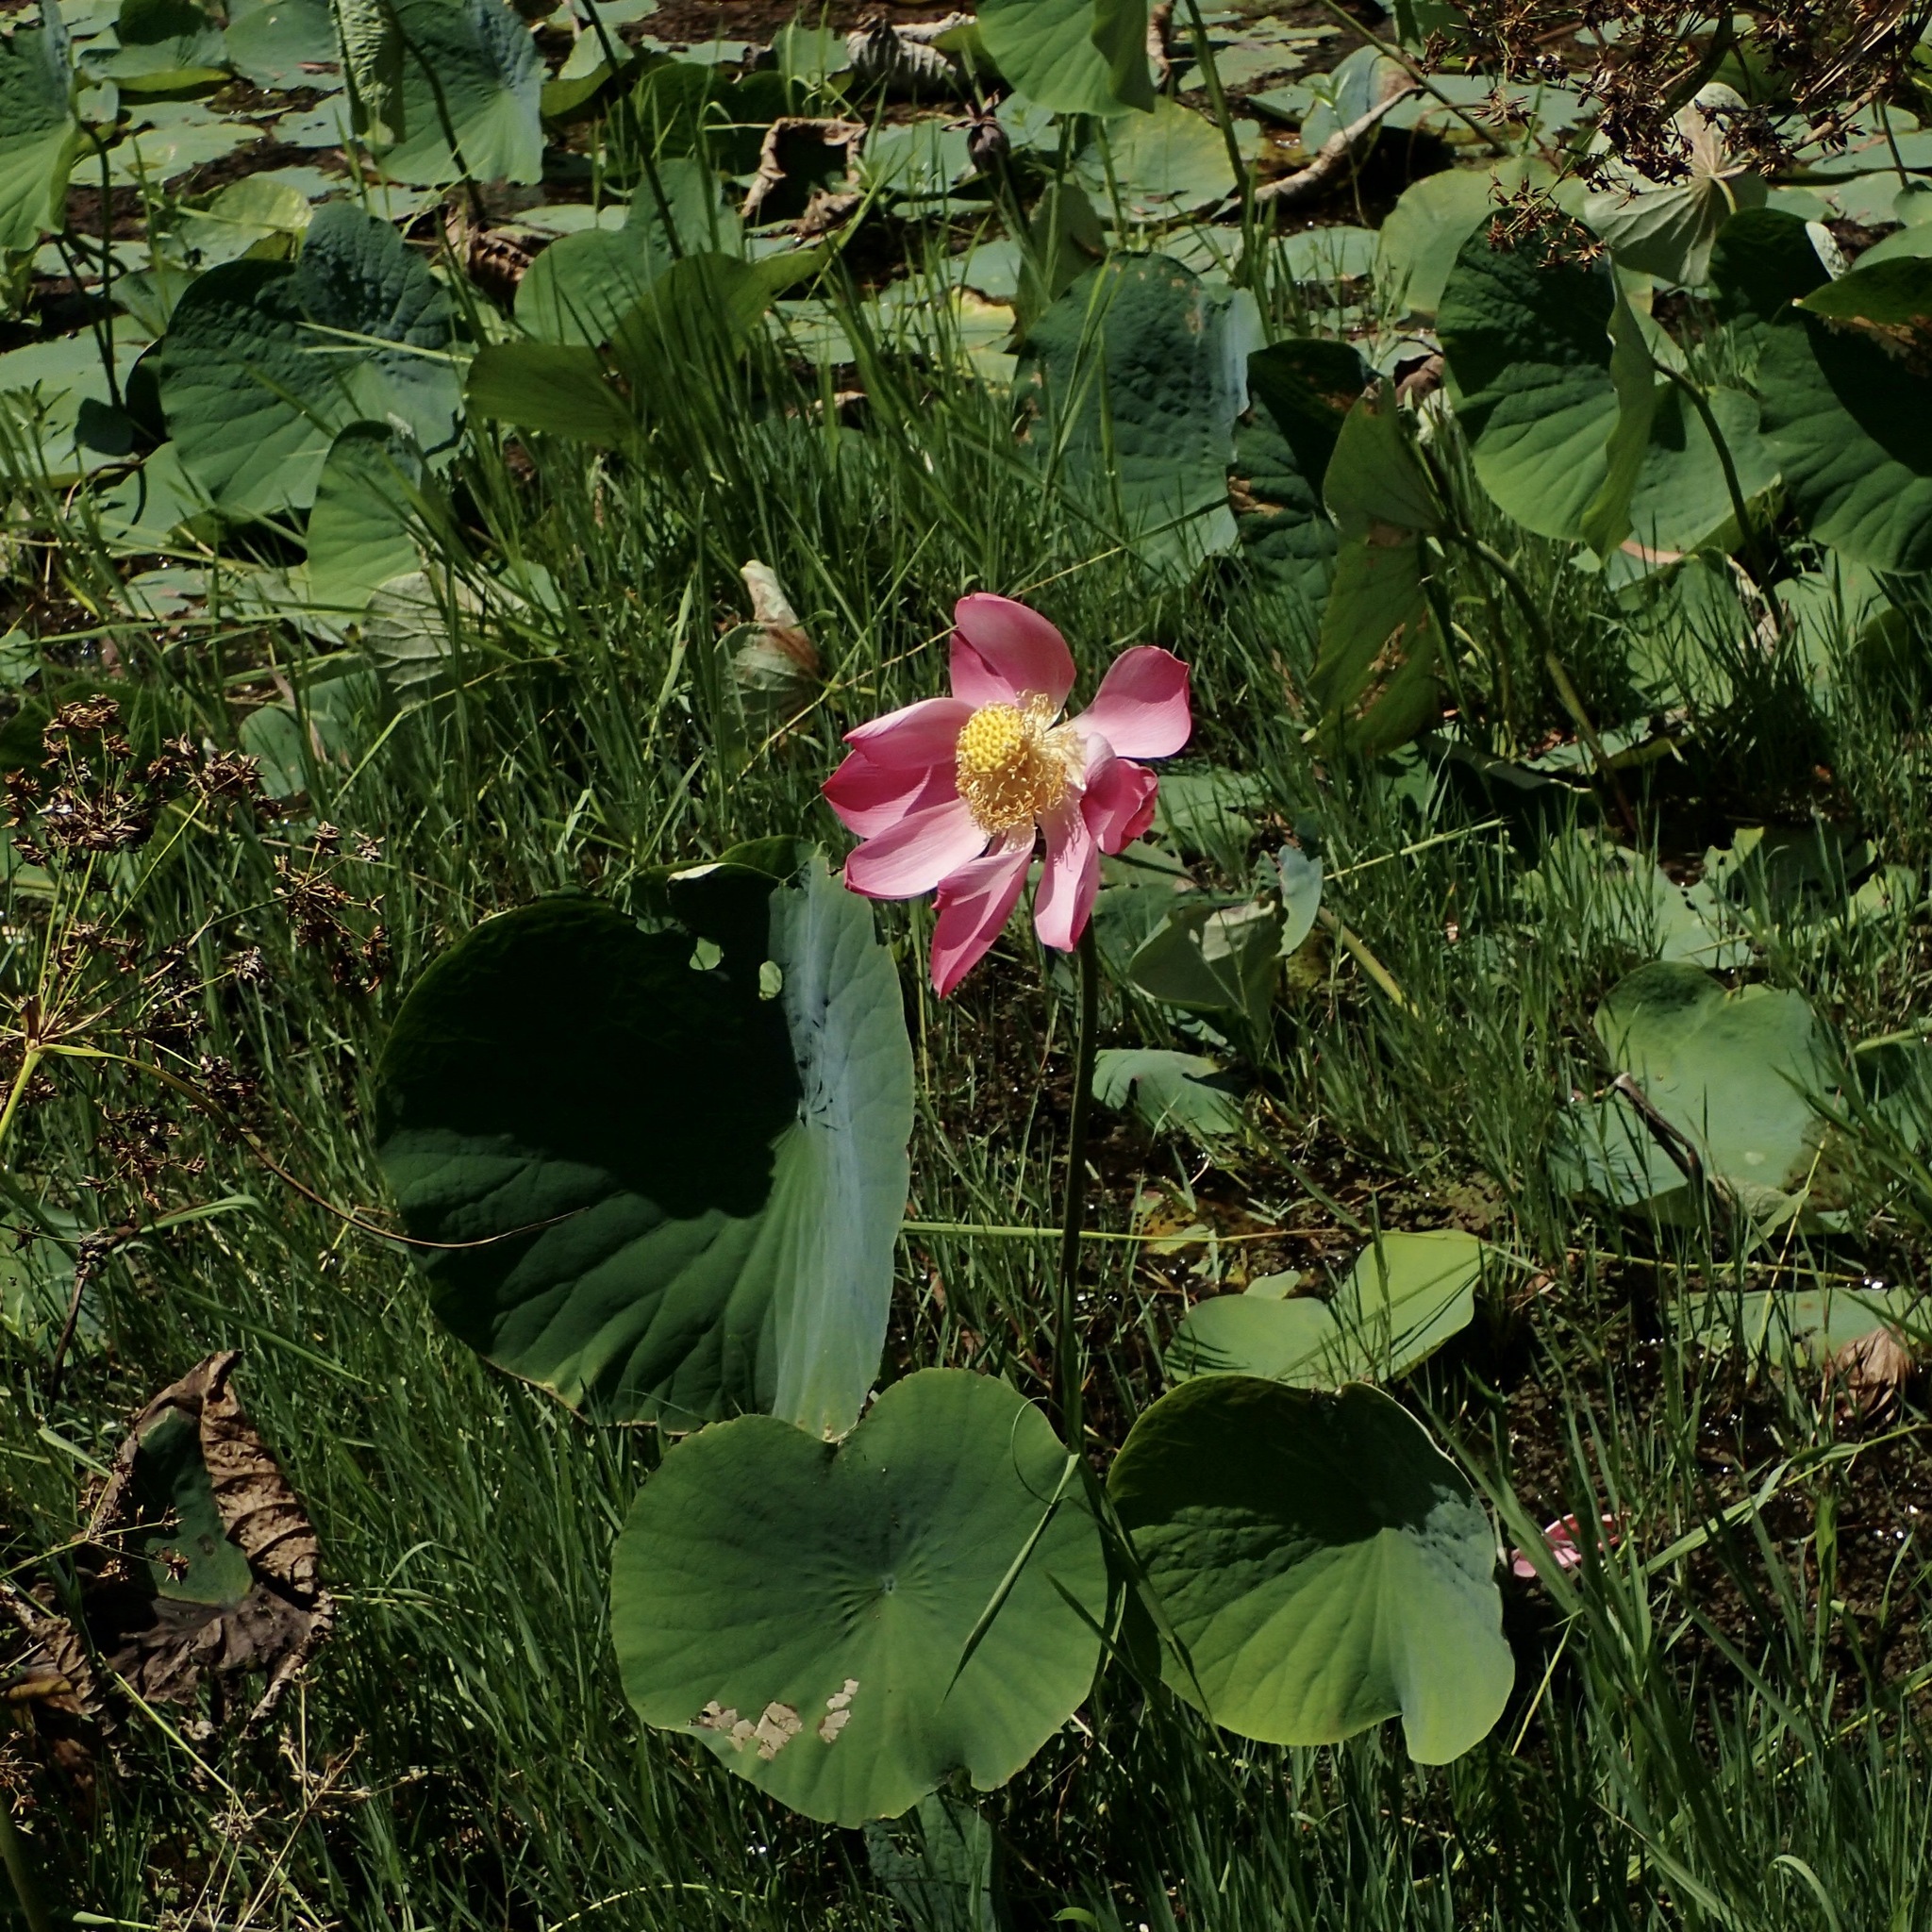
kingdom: Plantae
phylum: Tracheophyta
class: Magnoliopsida
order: Proteales
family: Nelumbonaceae
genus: Nelumbo
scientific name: Nelumbo nucifera
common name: Sacred lotus
